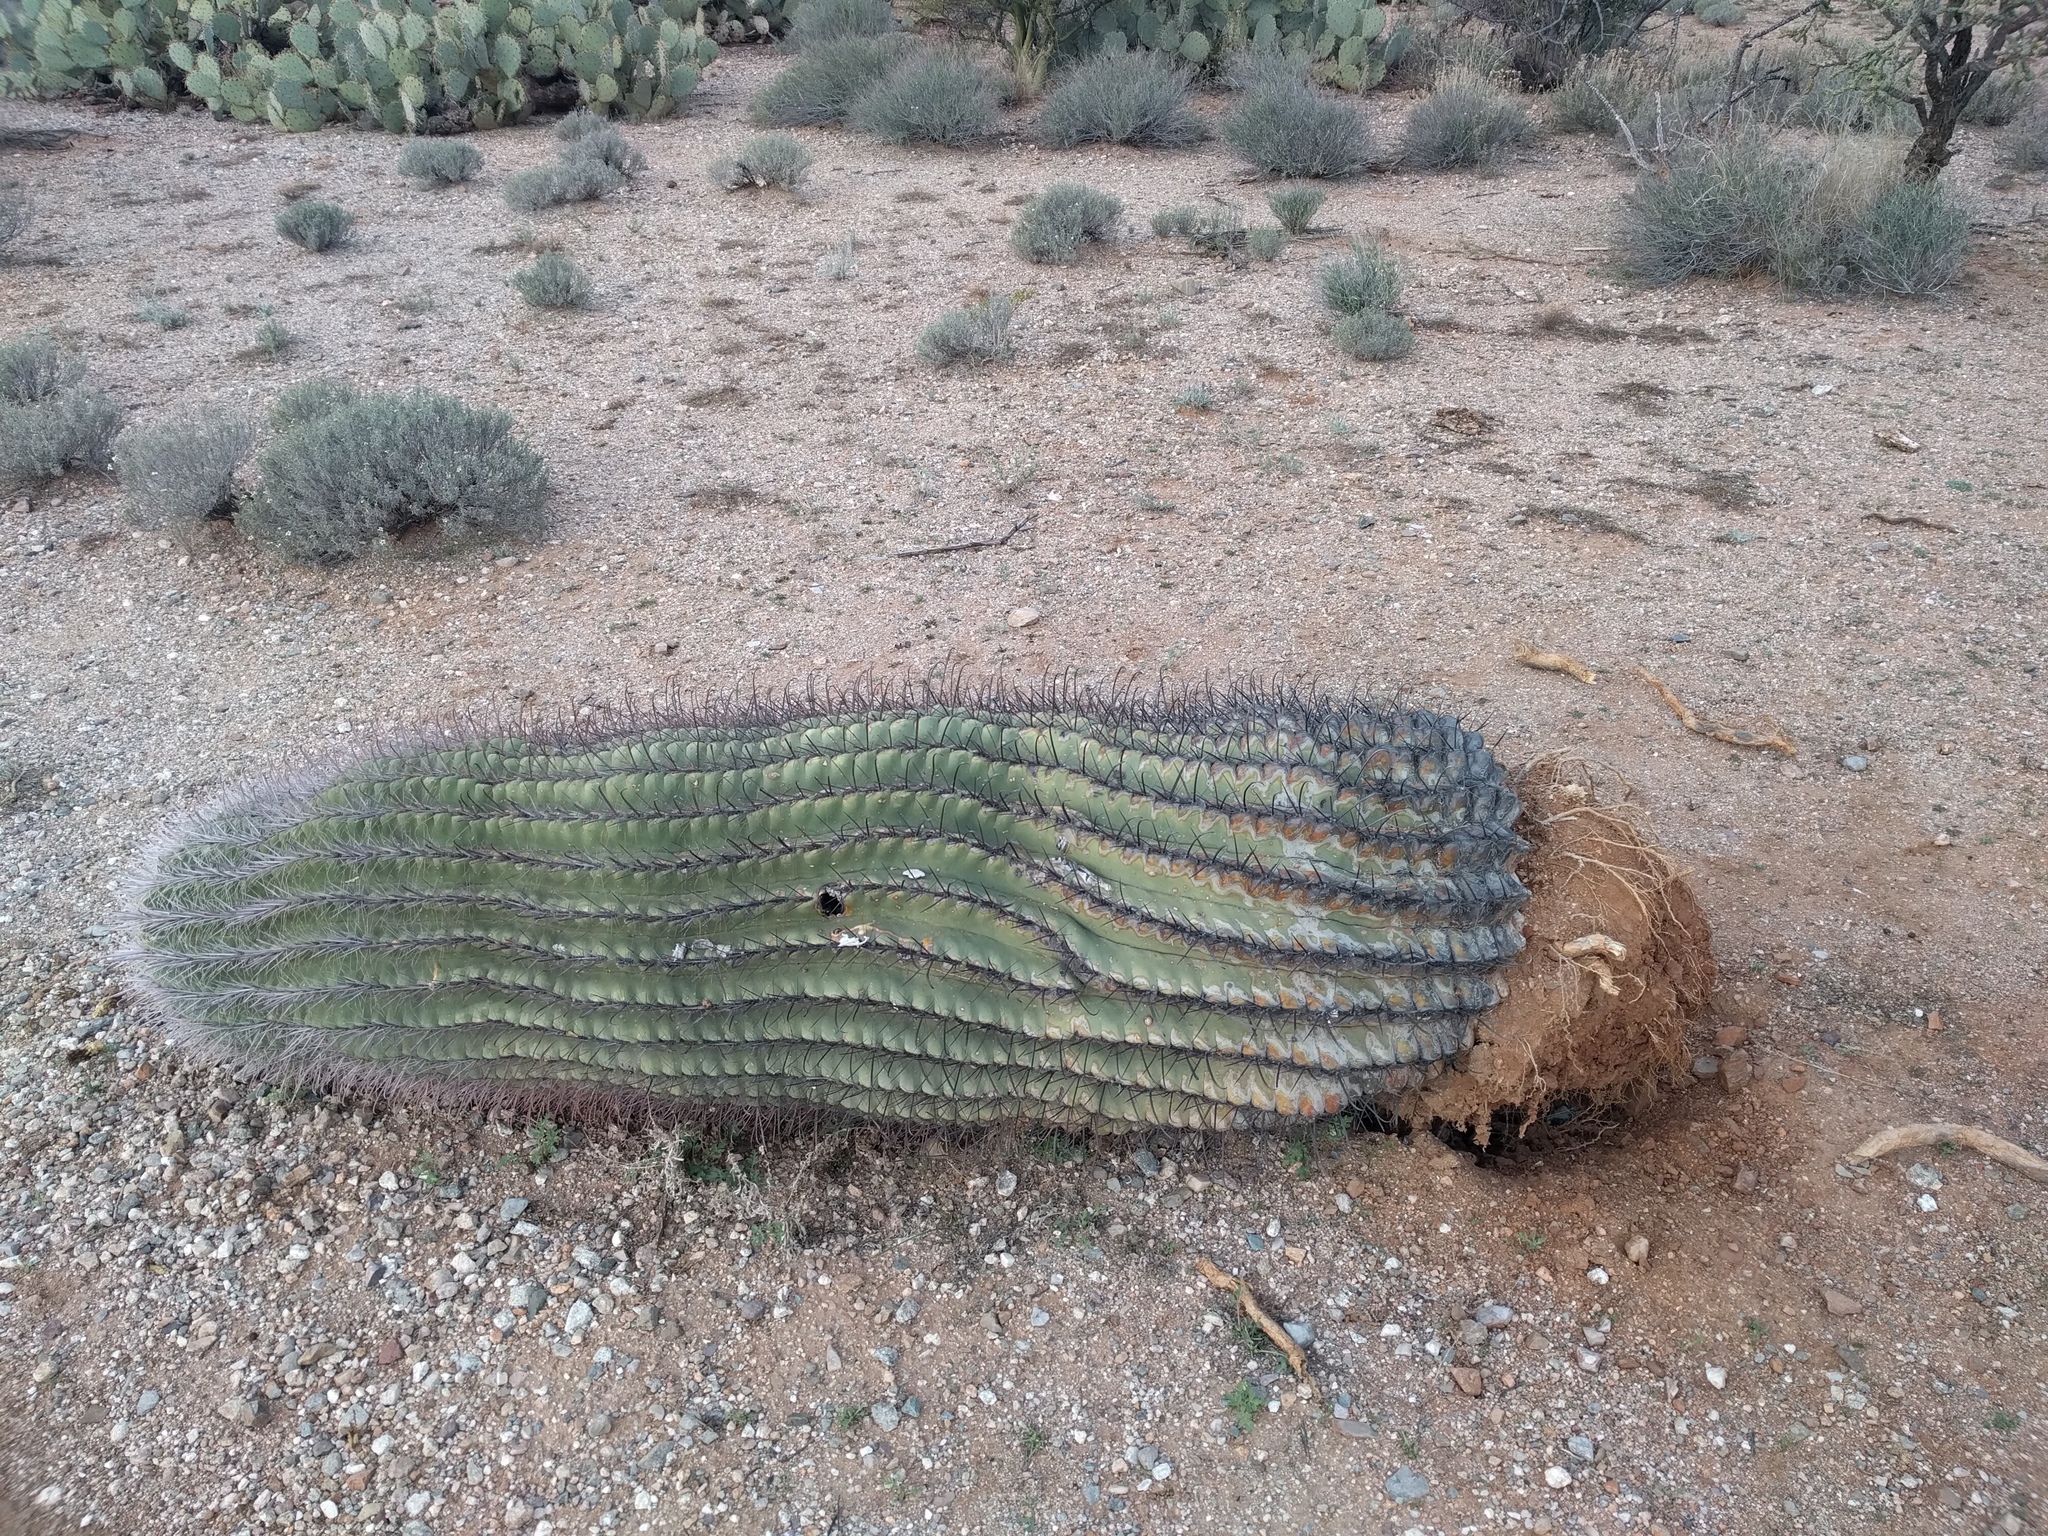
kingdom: Plantae
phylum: Tracheophyta
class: Magnoliopsida
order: Caryophyllales
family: Cactaceae
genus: Ferocactus
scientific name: Ferocactus wislizeni
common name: Candy barrel cactus
